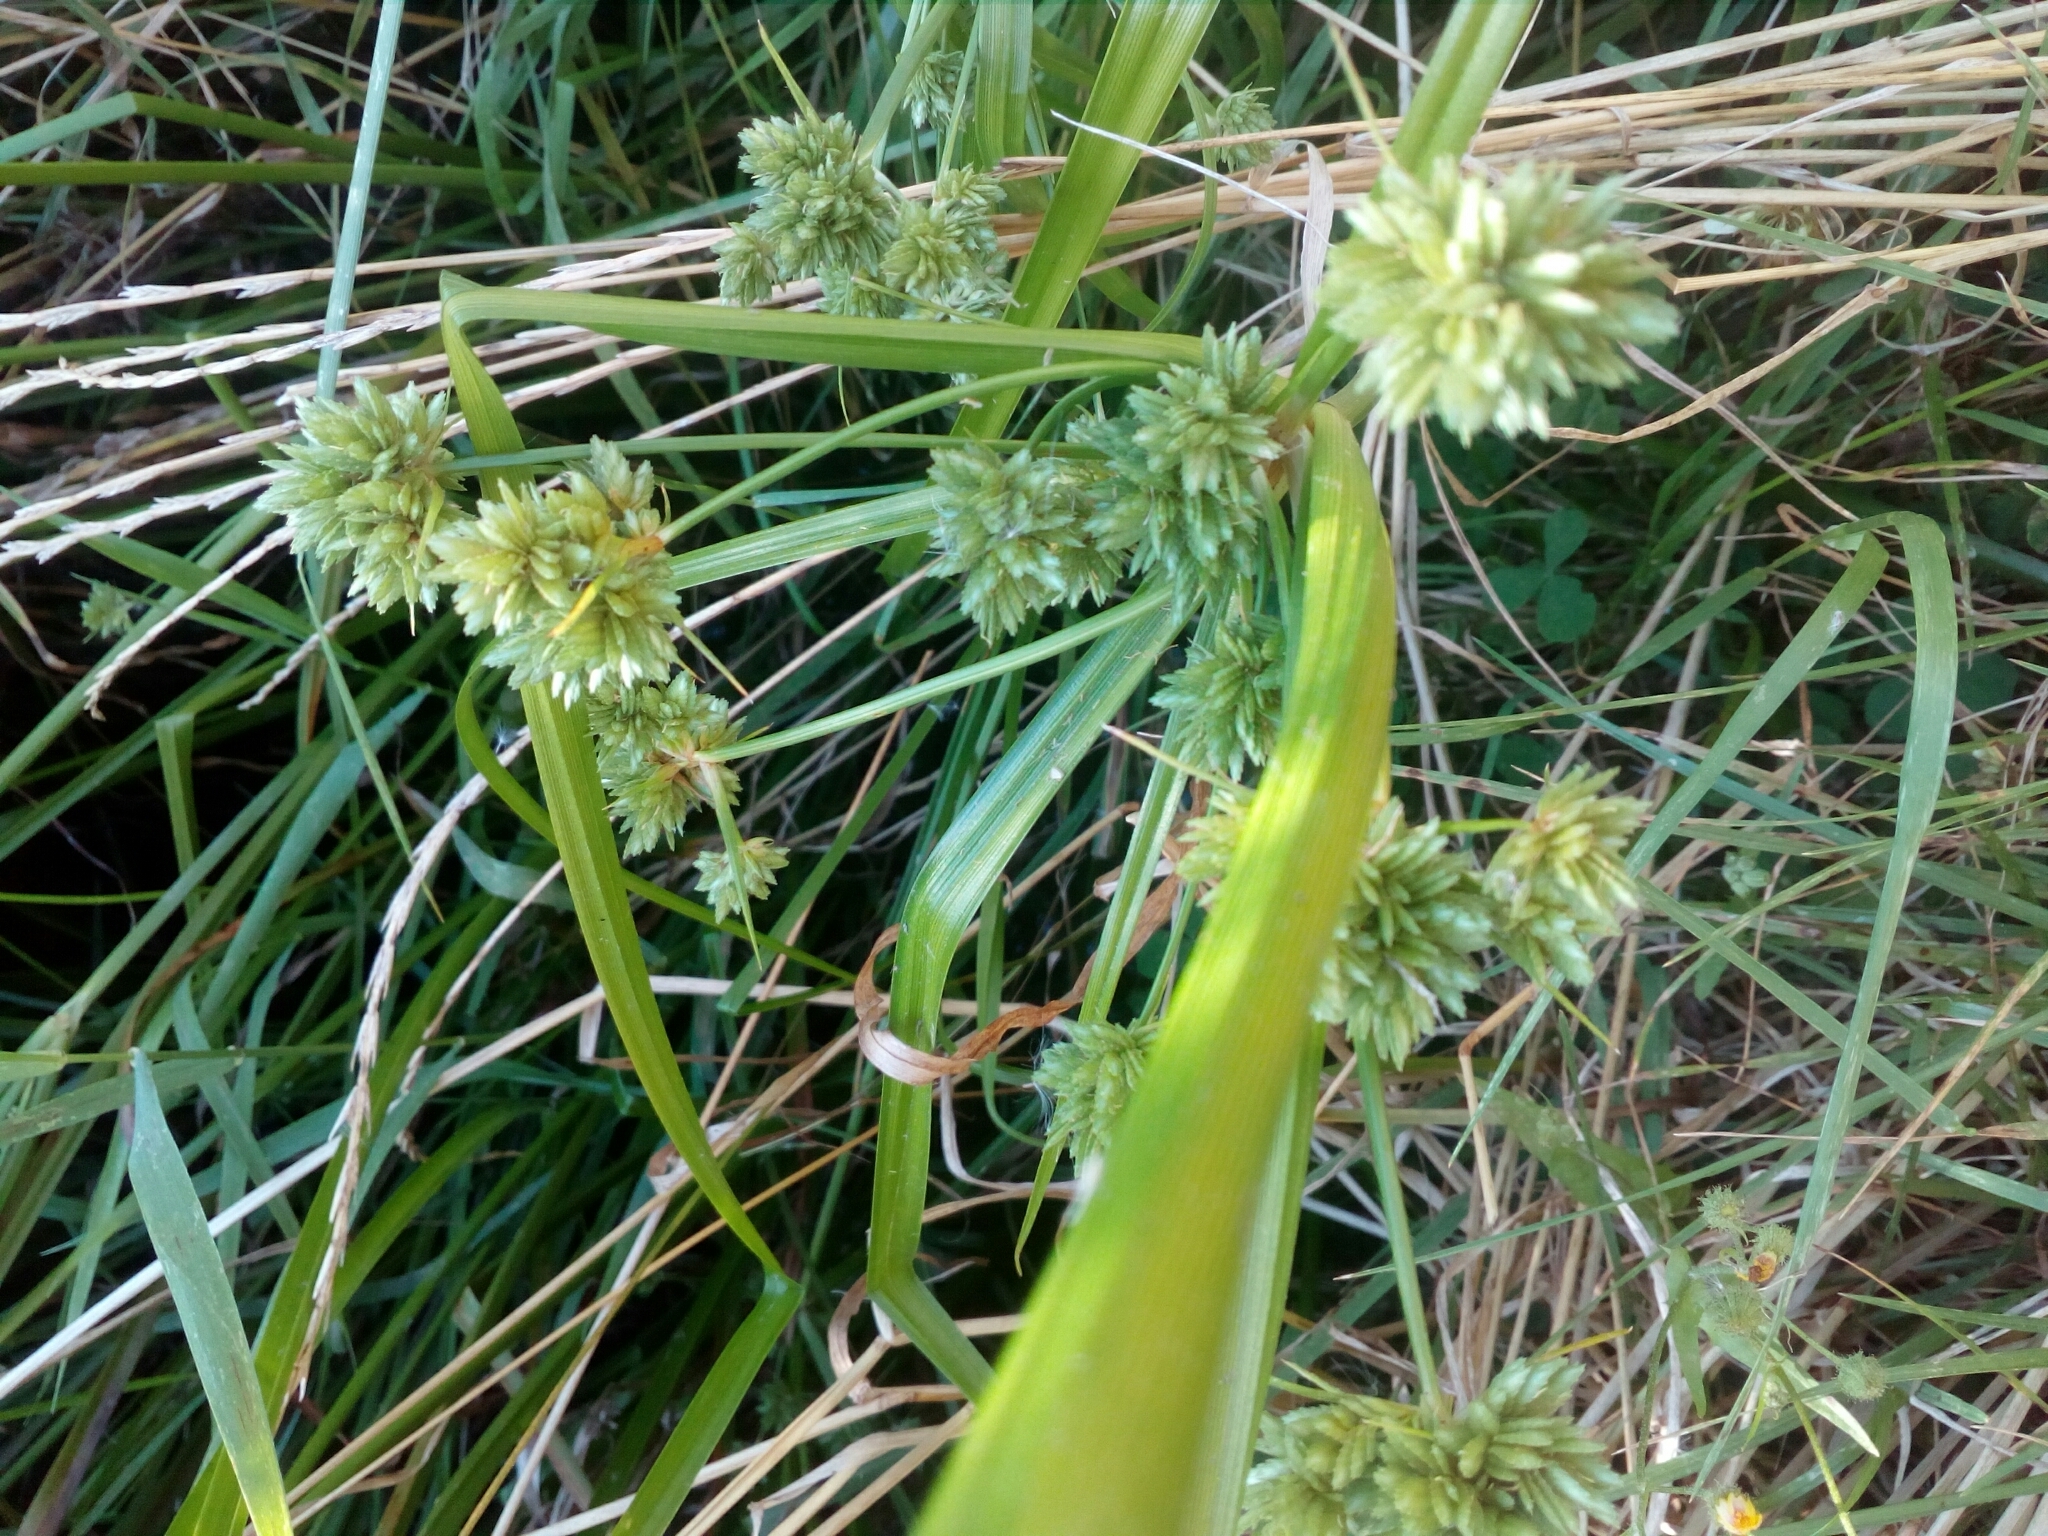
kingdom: Plantae
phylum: Tracheophyta
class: Liliopsida
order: Poales
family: Cyperaceae
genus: Cyperus
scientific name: Cyperus eragrostis
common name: Tall flatsedge
